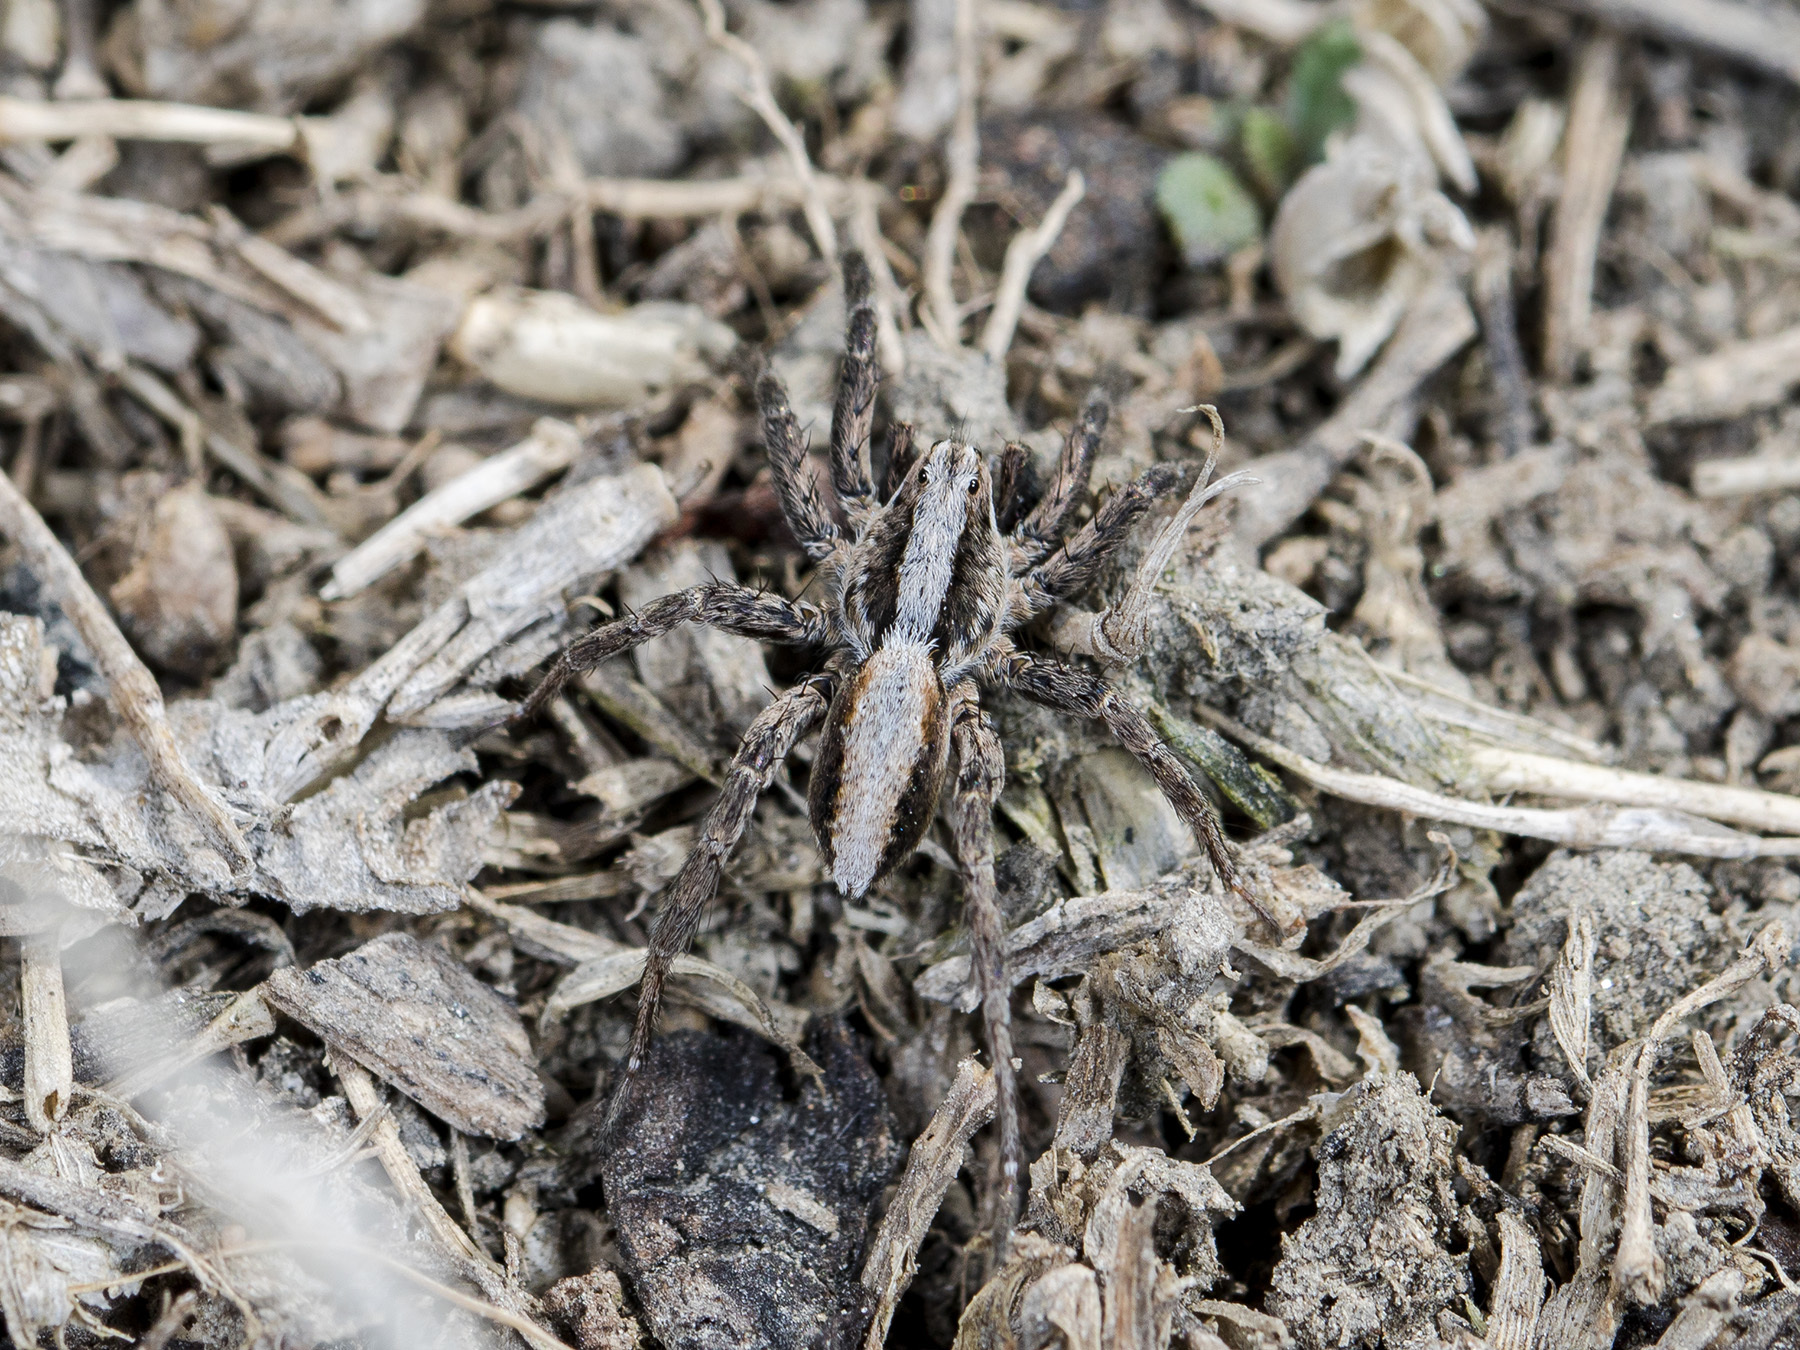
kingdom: Animalia
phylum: Arthropoda
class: Arachnida
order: Araneae
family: Lycosidae
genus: Alopecosa
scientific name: Alopecosa cursor
